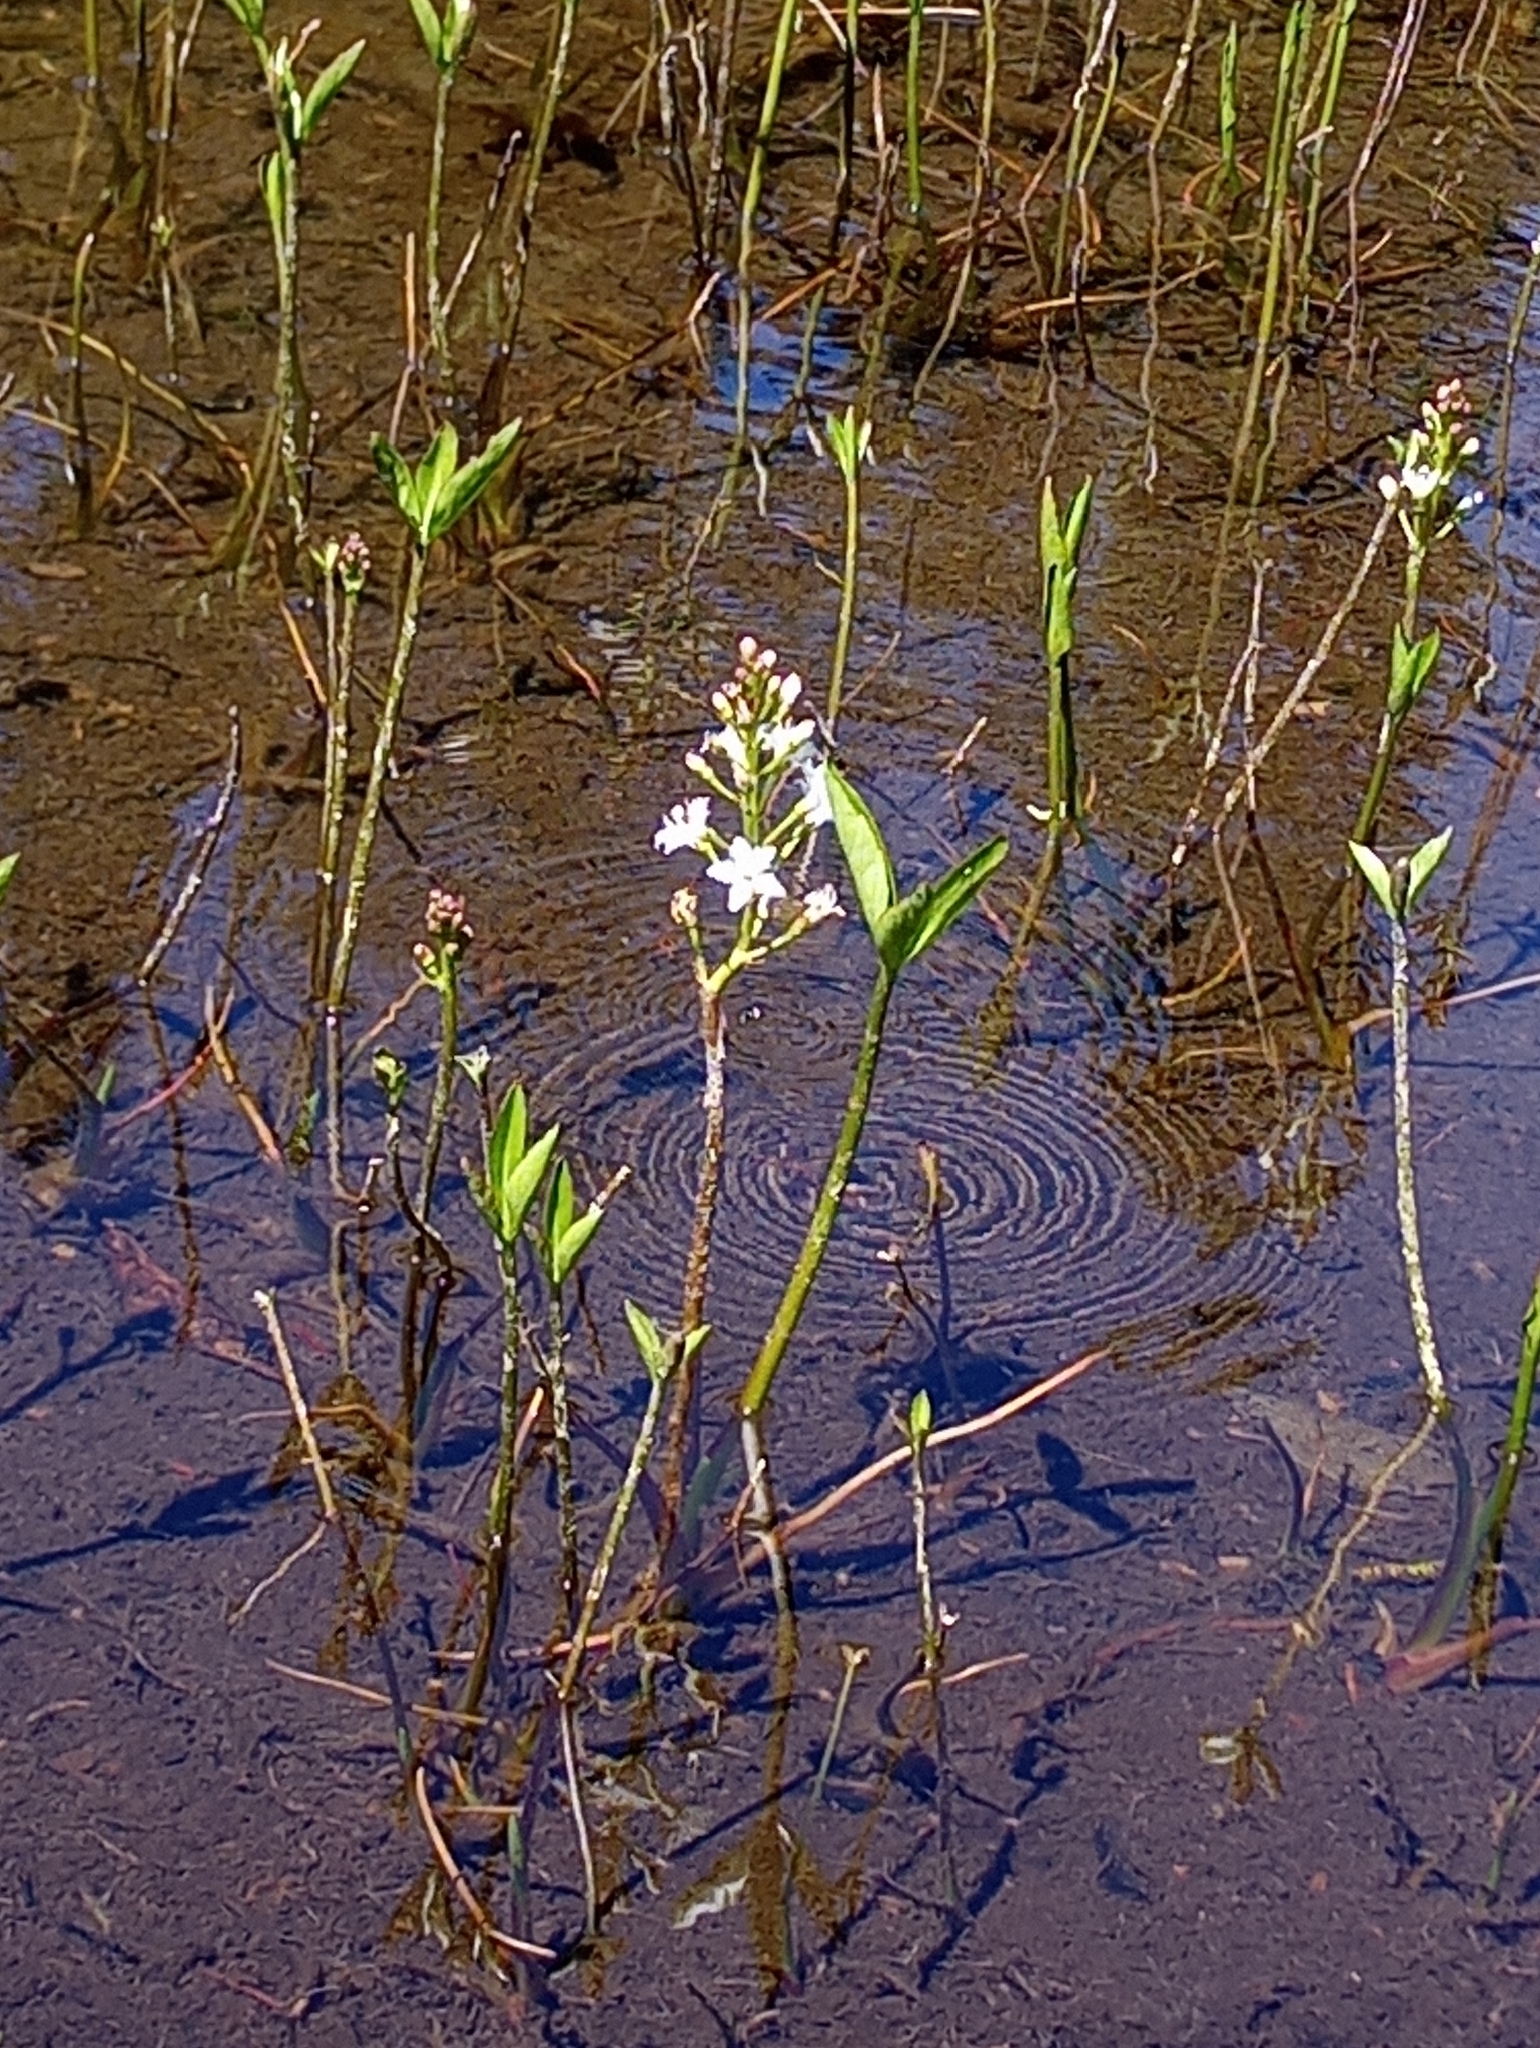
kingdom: Plantae
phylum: Tracheophyta
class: Magnoliopsida
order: Asterales
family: Menyanthaceae
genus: Menyanthes
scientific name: Menyanthes trifoliata
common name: Bogbean
